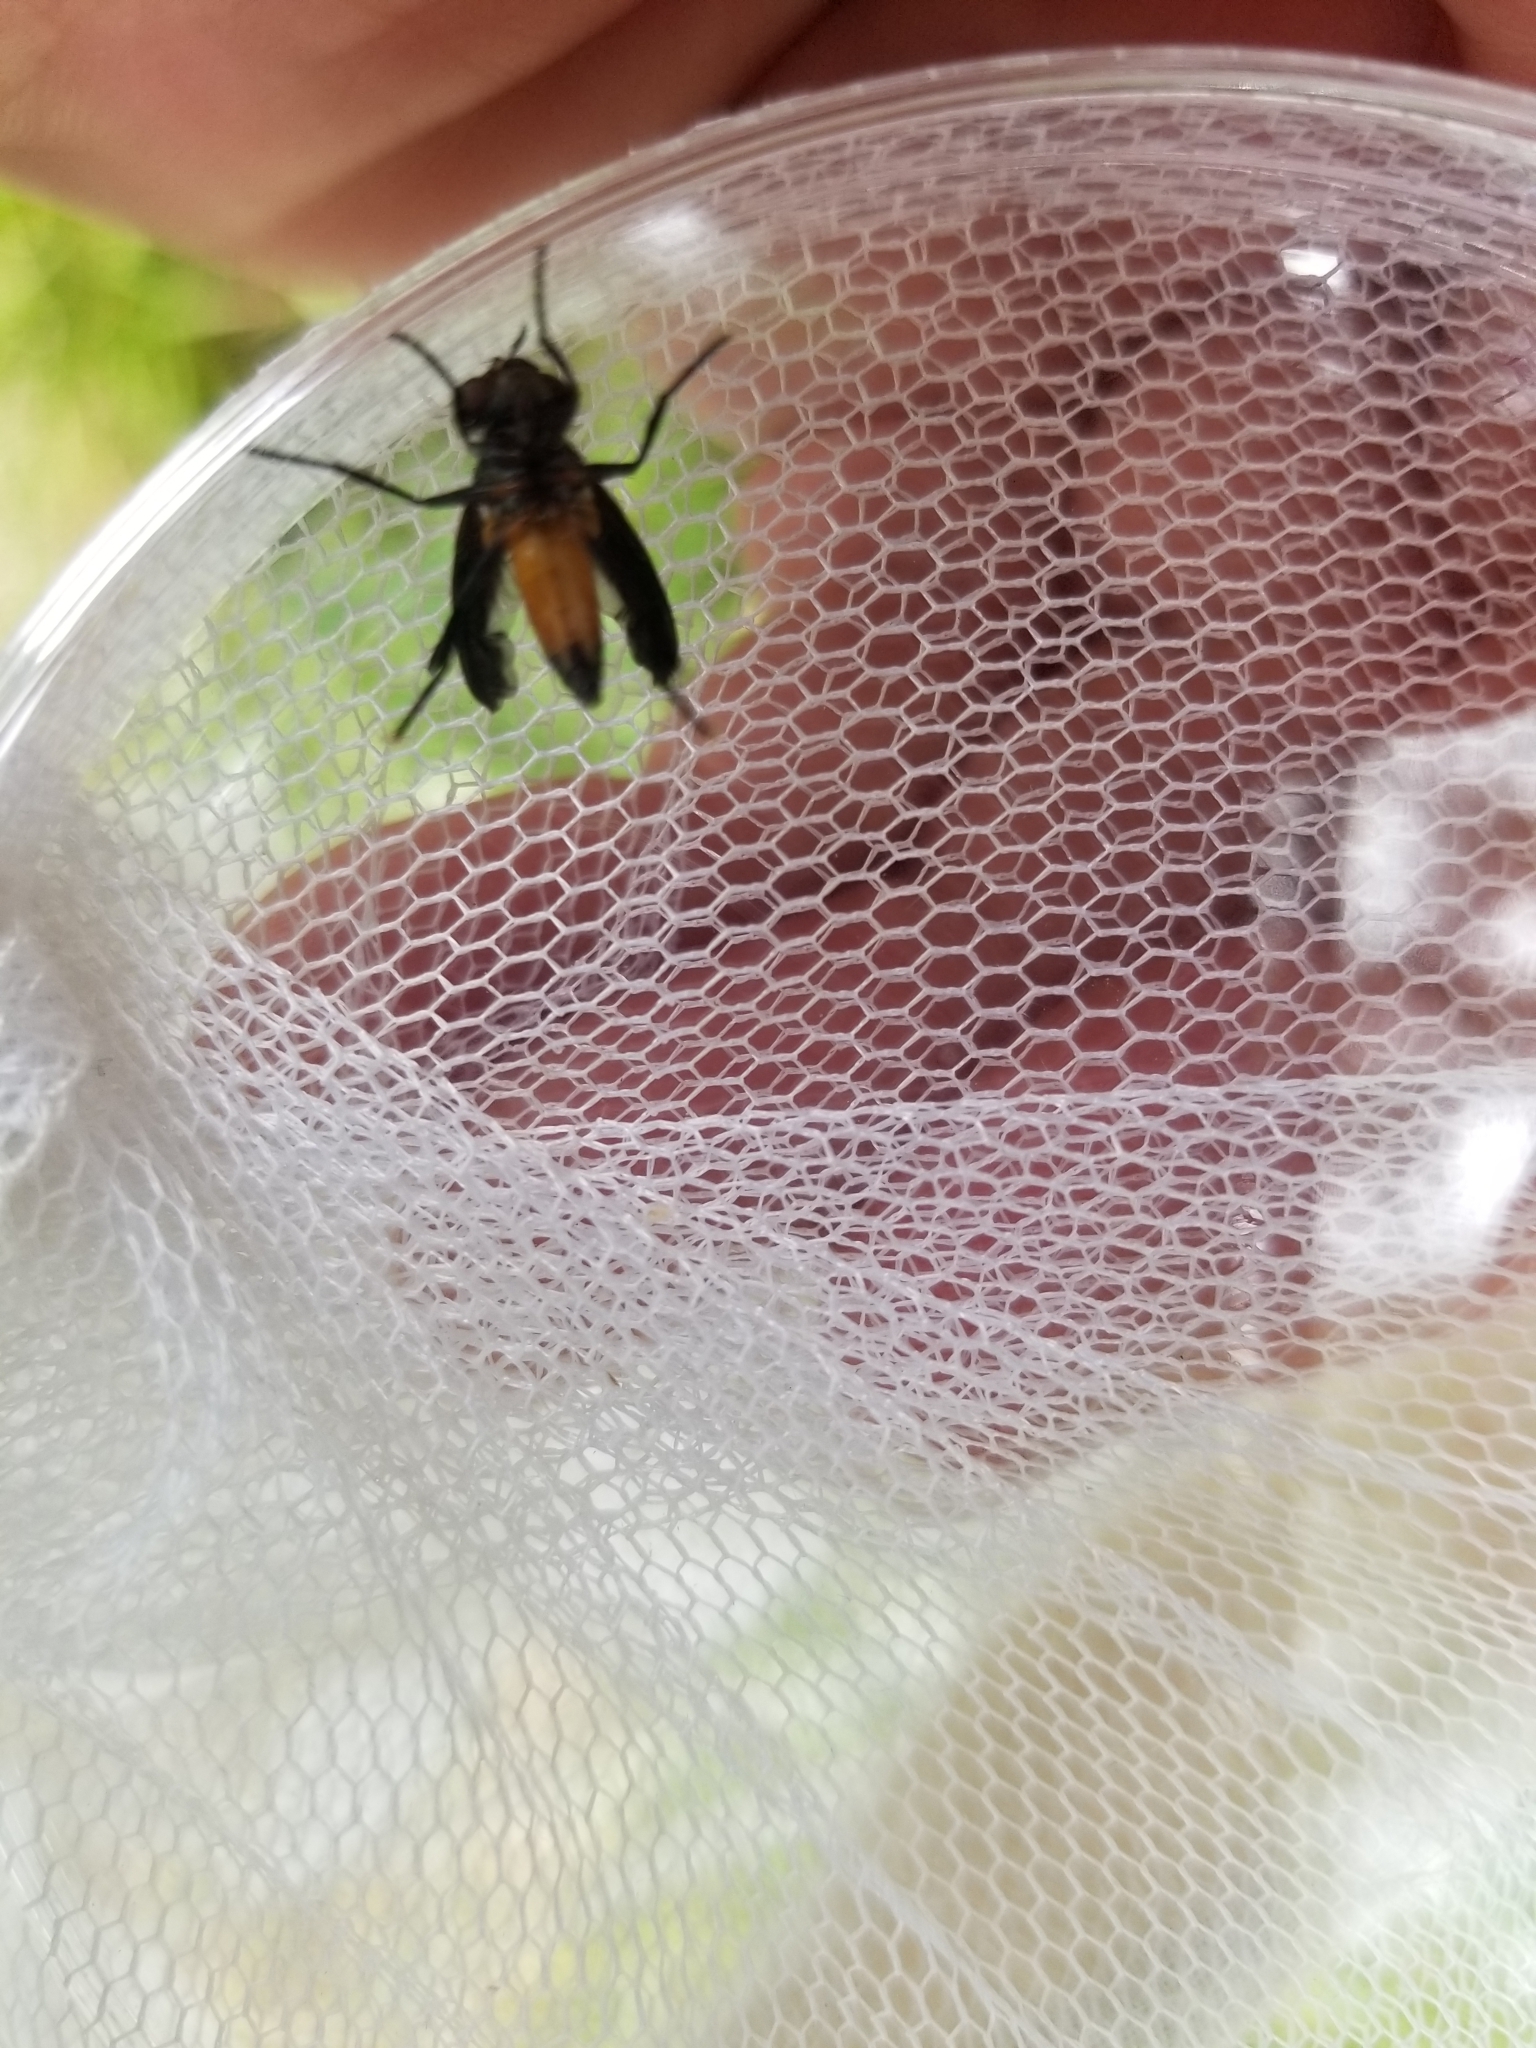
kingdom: Animalia
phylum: Arthropoda
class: Insecta
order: Diptera
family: Tachinidae
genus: Trichopoda
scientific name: Trichopoda pennipes
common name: Tachinid fly
